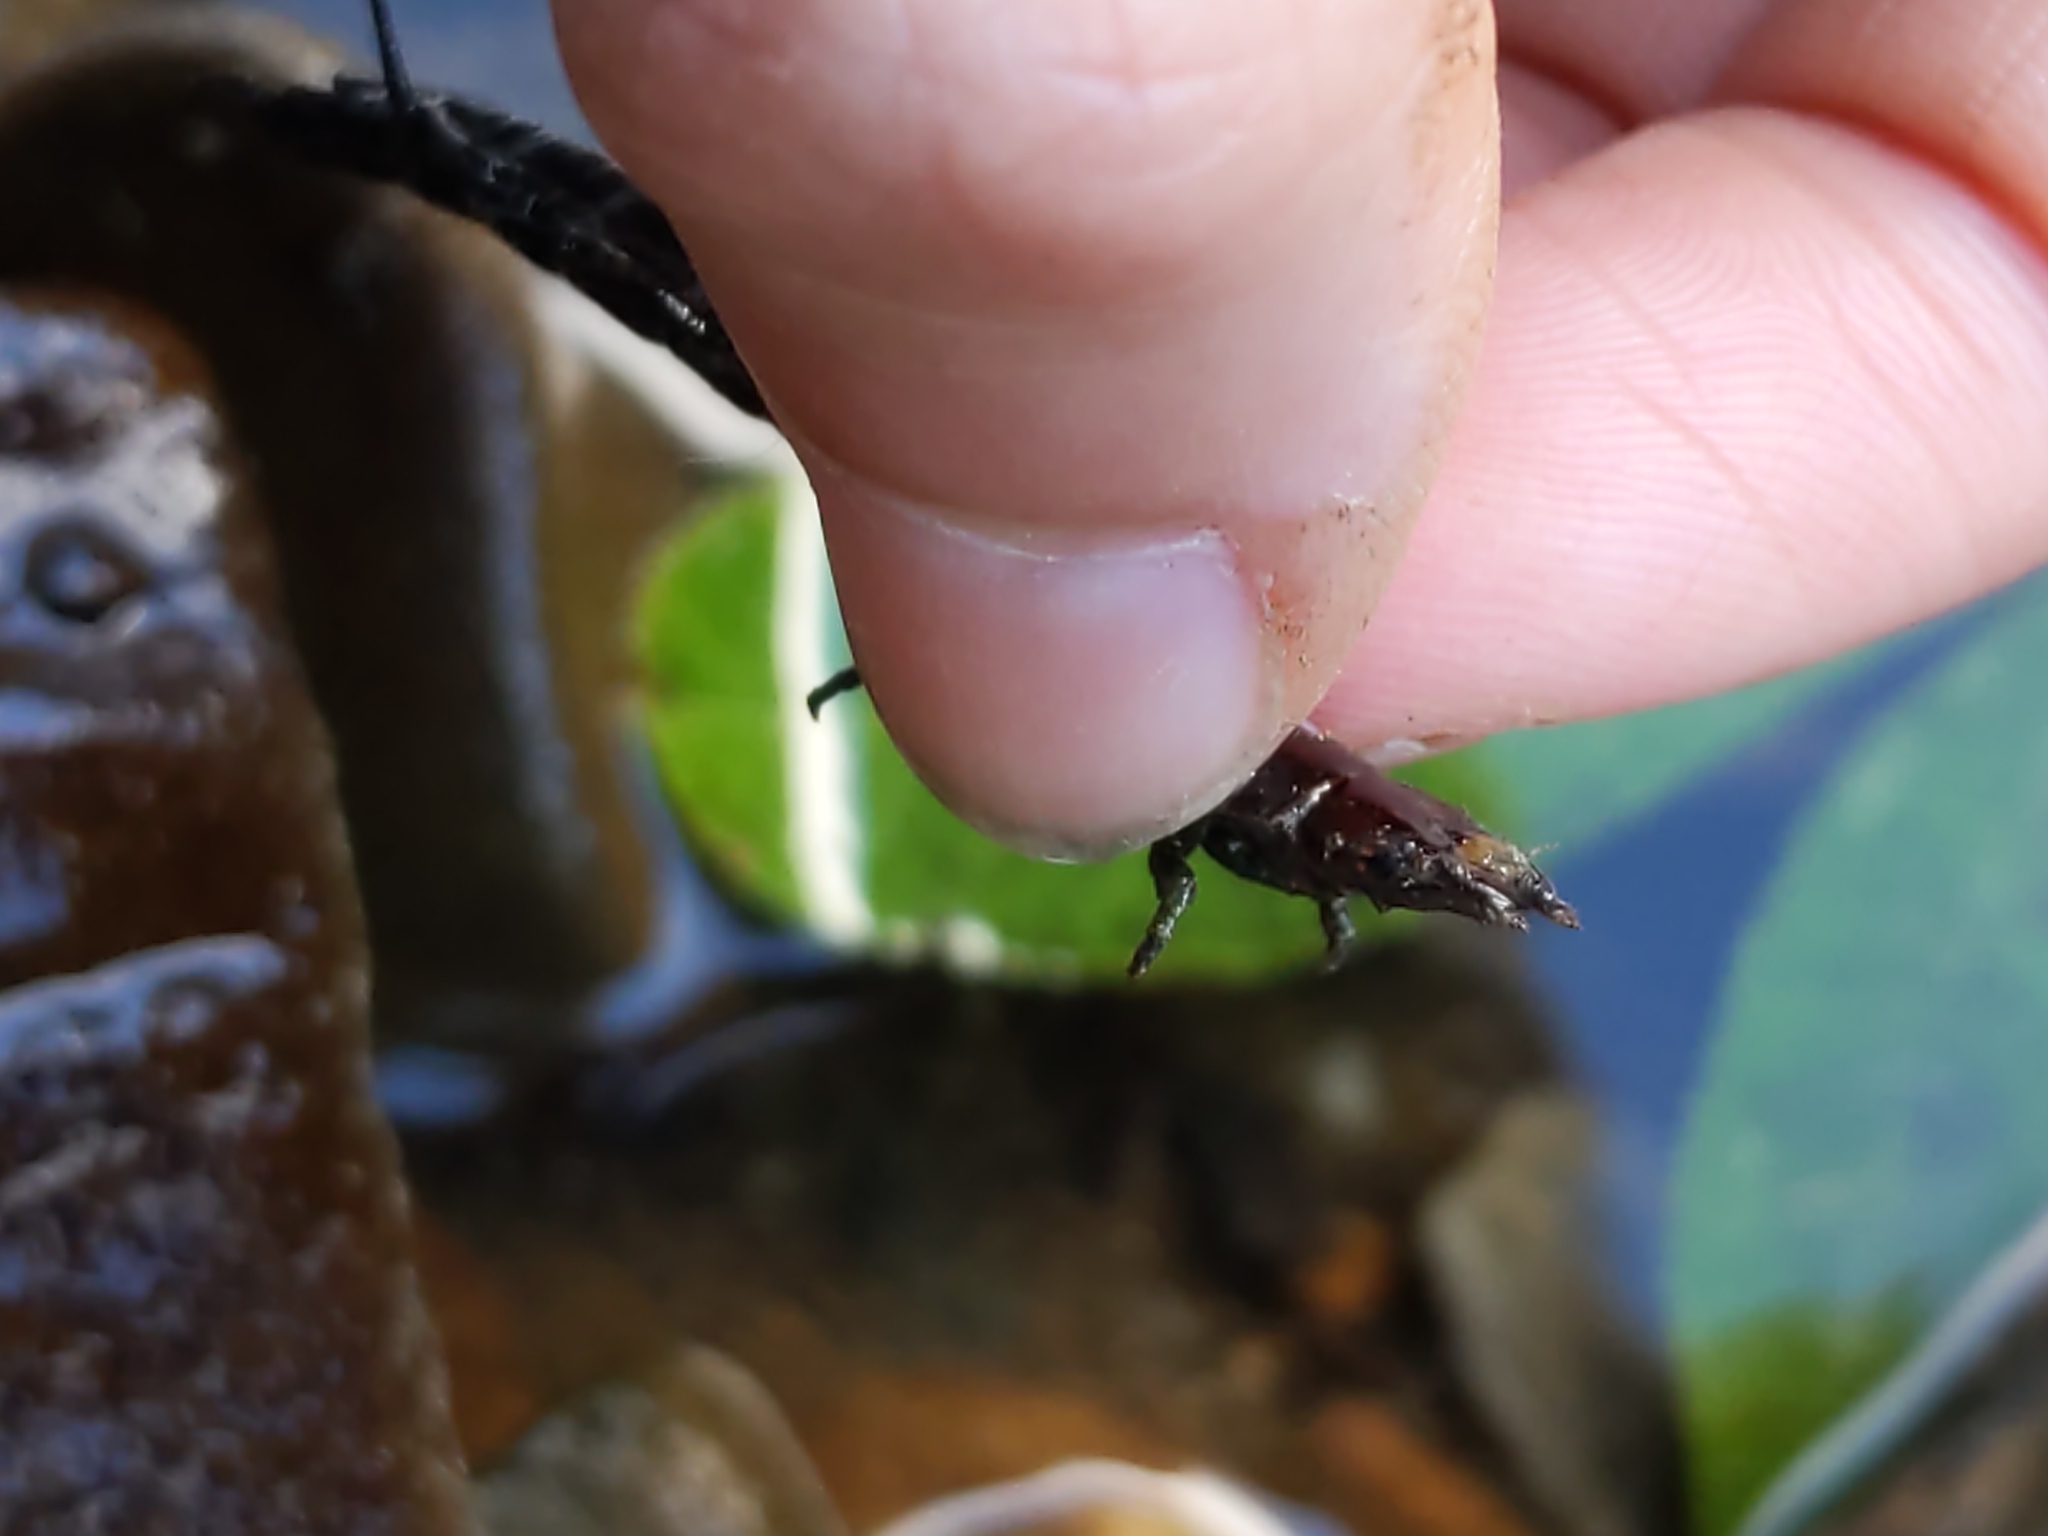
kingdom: Animalia
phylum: Arthropoda
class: Insecta
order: Megaloptera
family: Corydalidae
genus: Nigronia
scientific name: Nigronia
